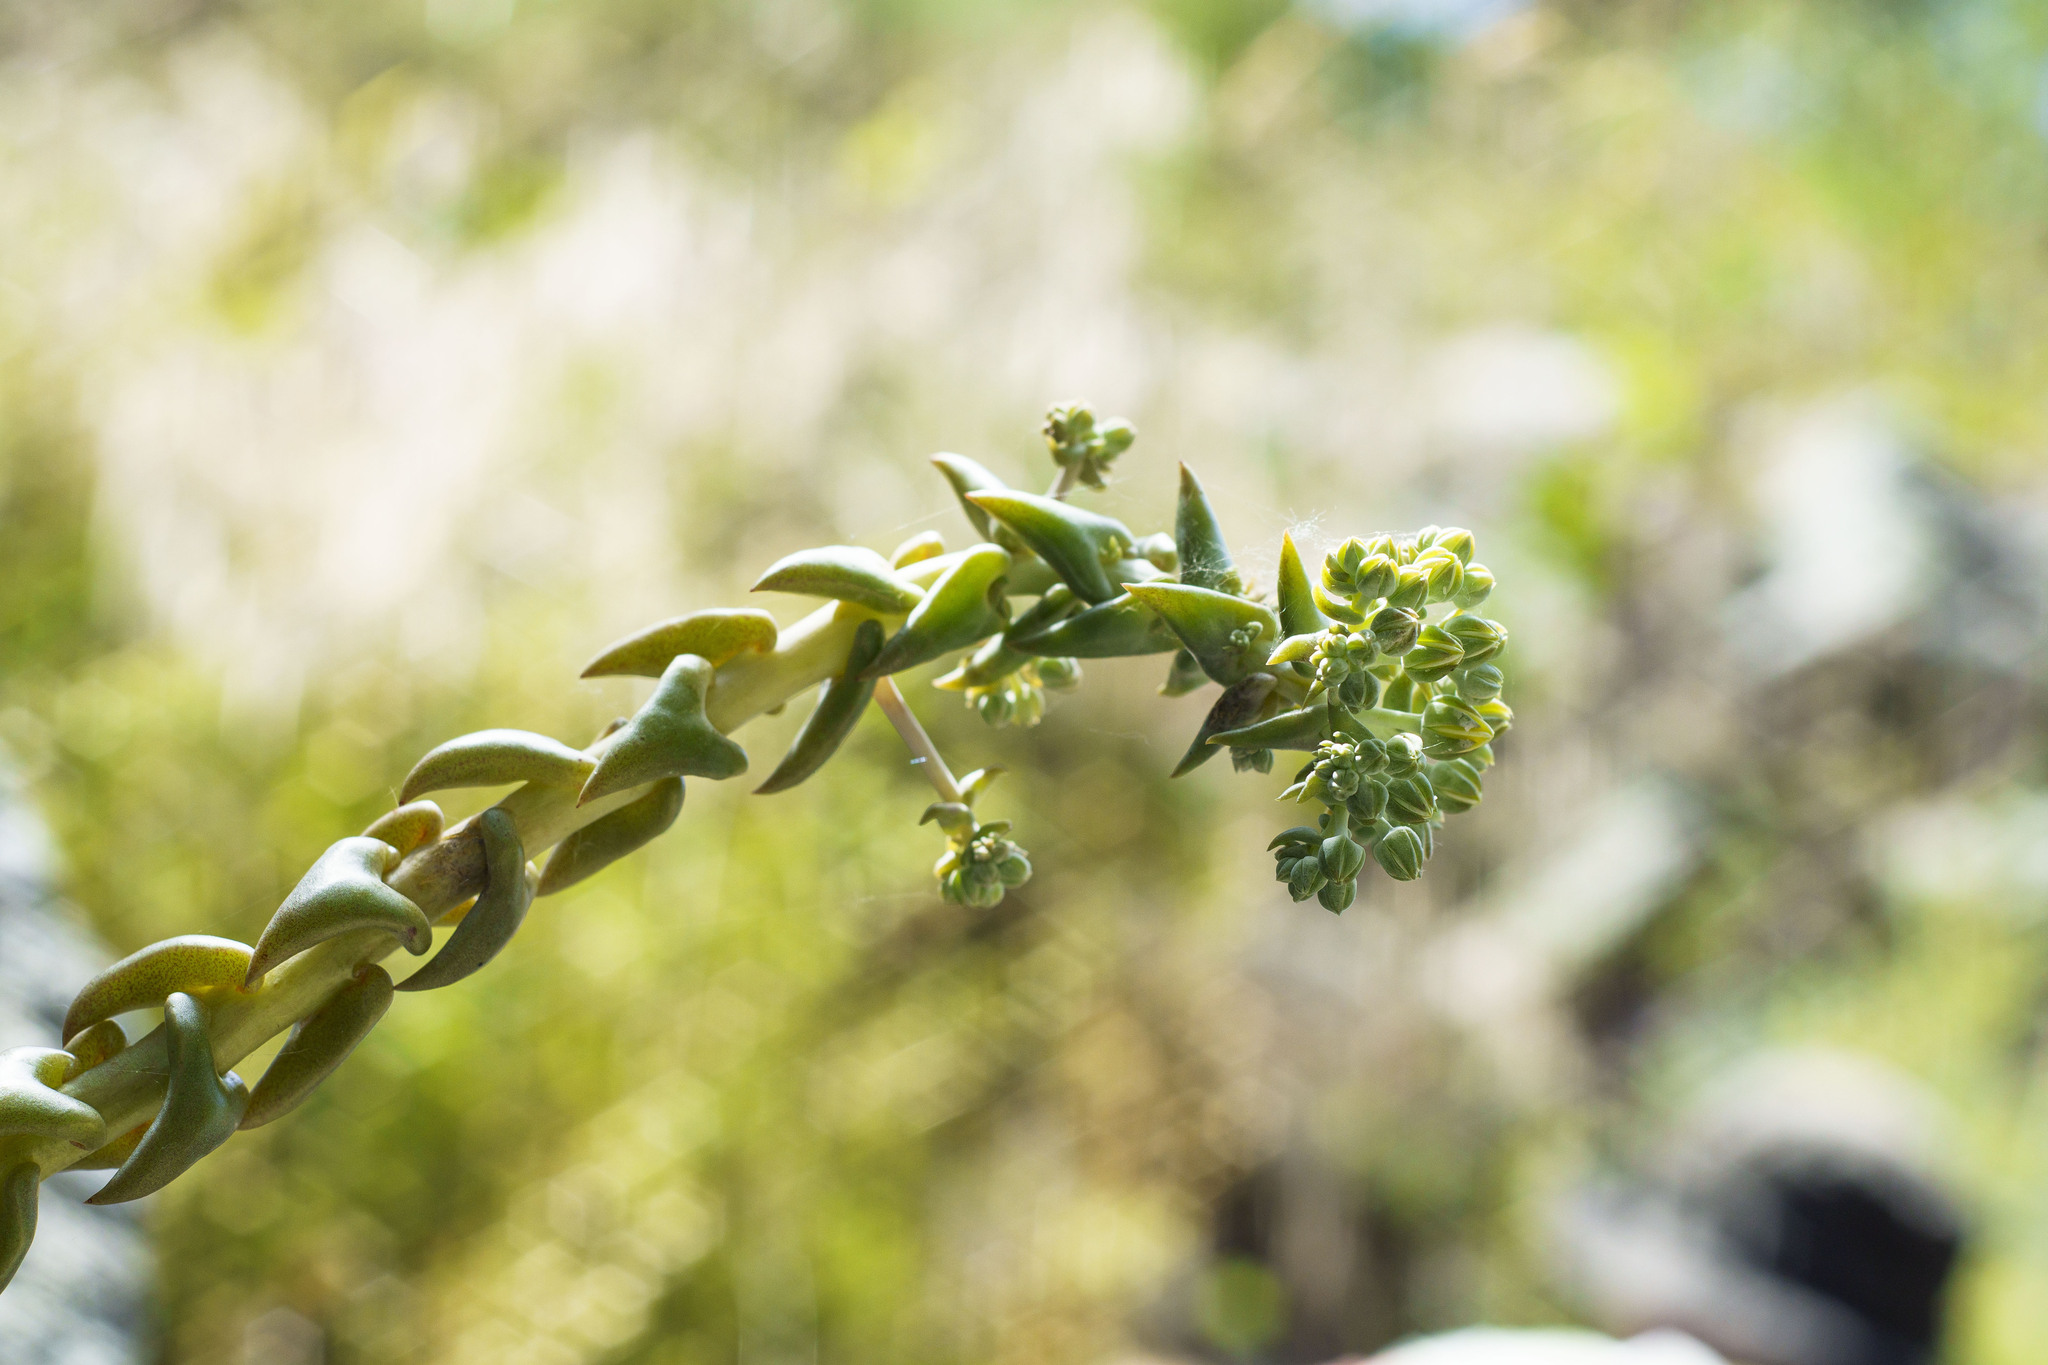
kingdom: Plantae
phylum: Tracheophyta
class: Magnoliopsida
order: Saxifragales
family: Crassulaceae
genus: Dudleya
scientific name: Dudleya cymosa
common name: Canyon dudleya
